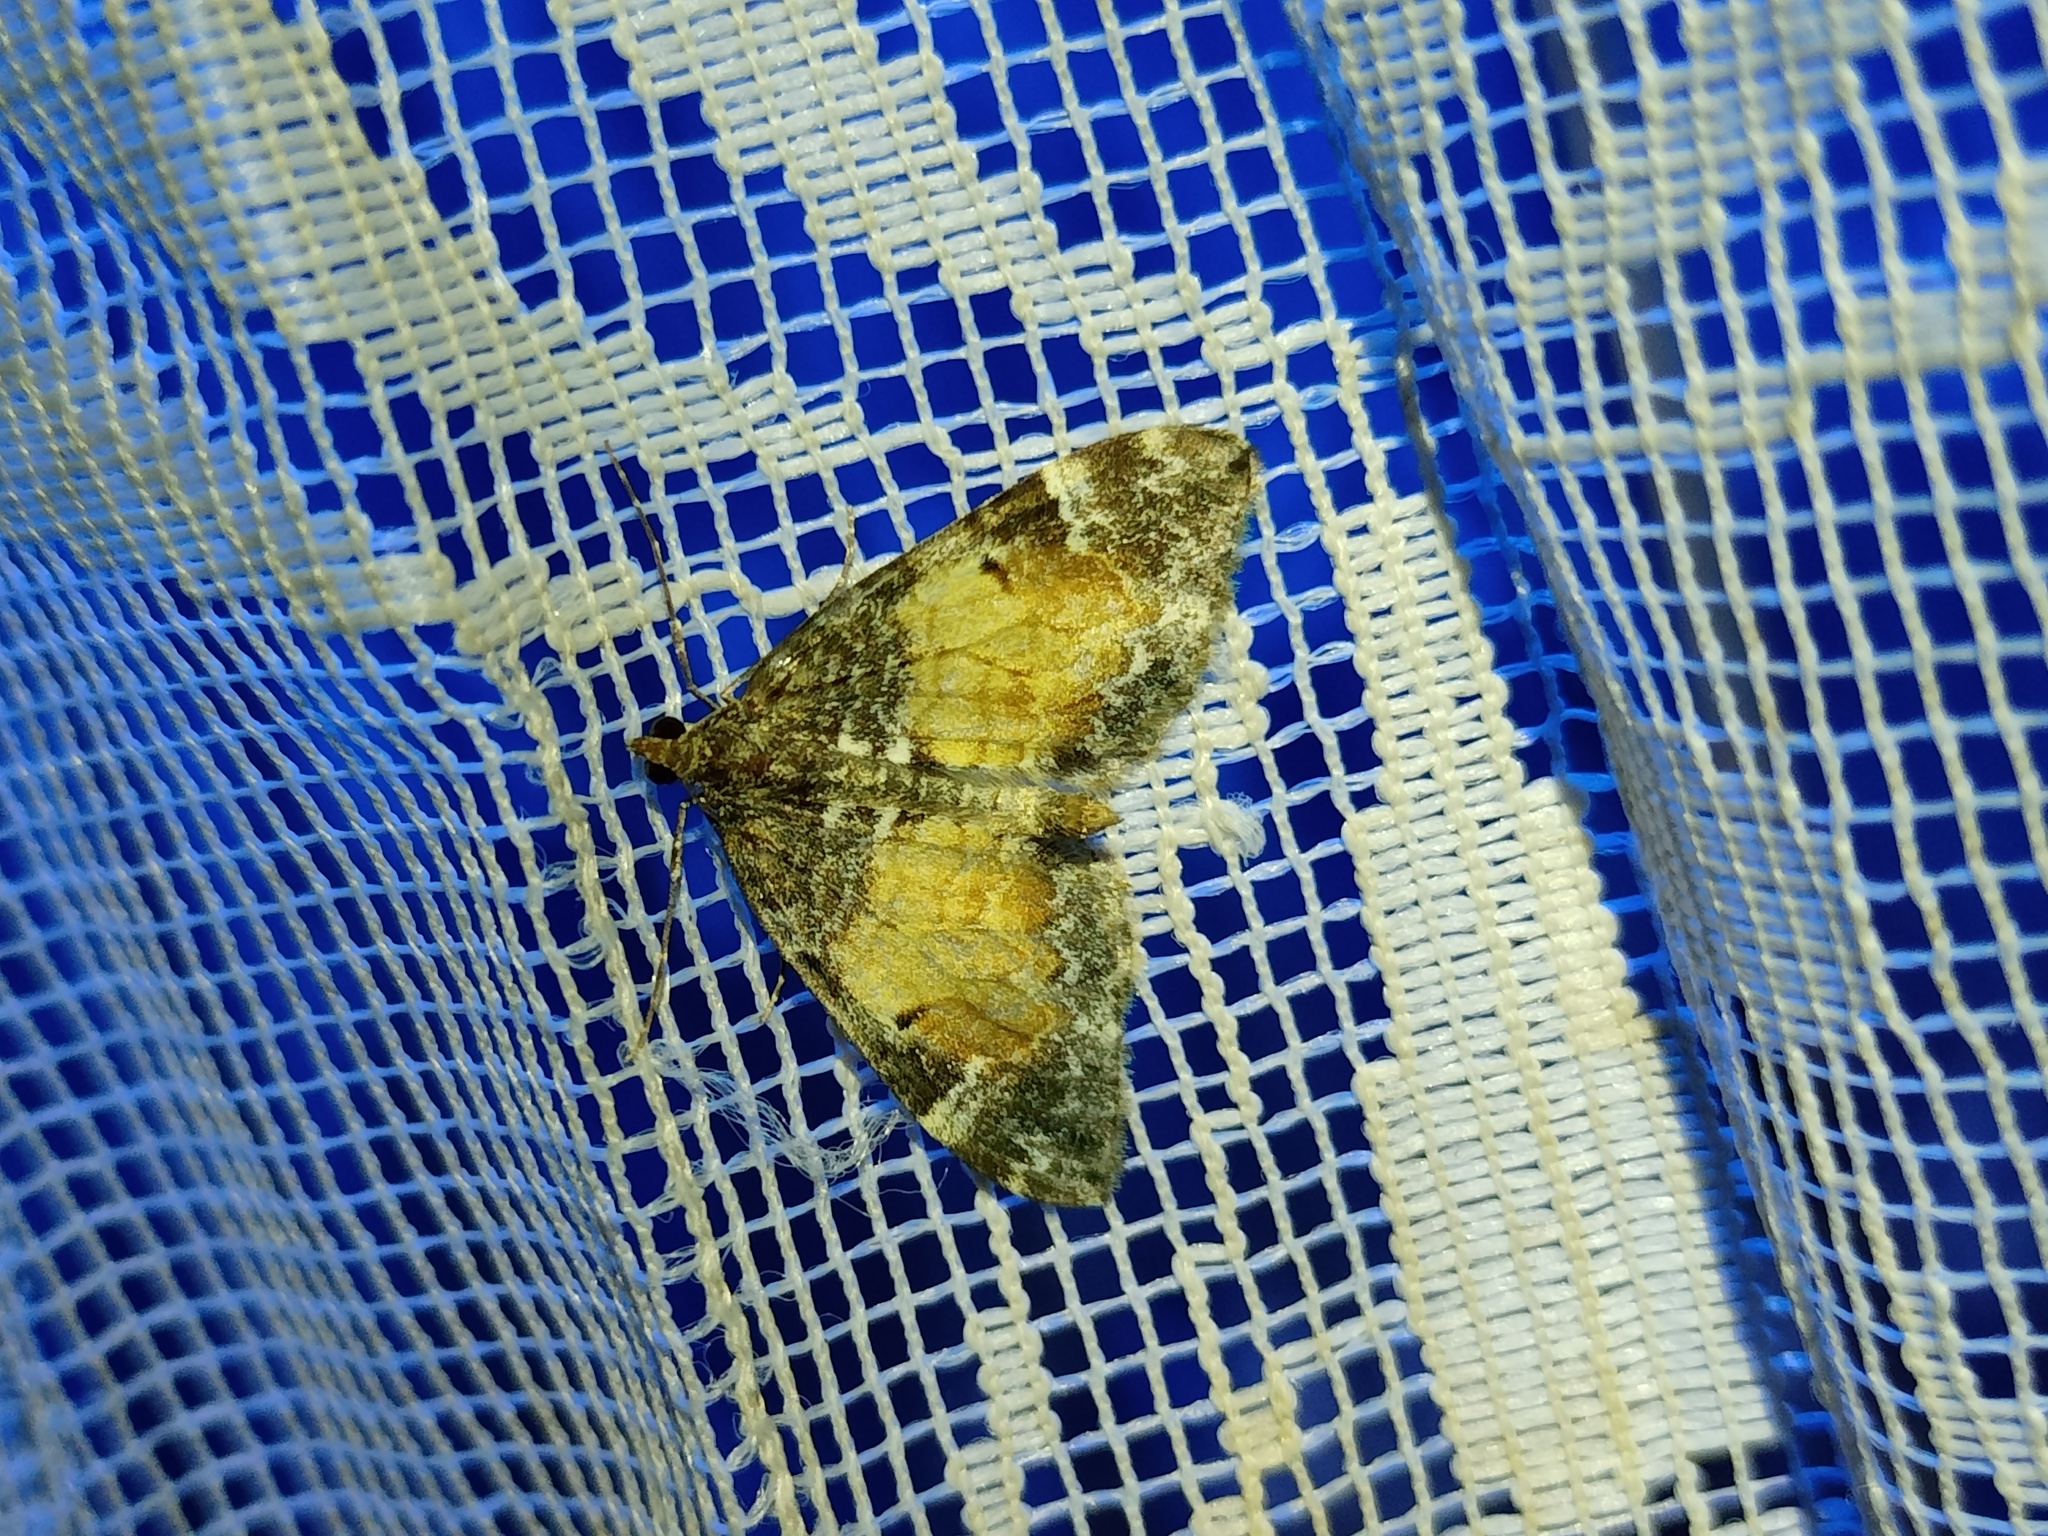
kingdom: Animalia
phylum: Arthropoda
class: Insecta
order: Lepidoptera
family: Geometridae
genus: Dysstroma
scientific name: Dysstroma truncata
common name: Common marbled carpet
